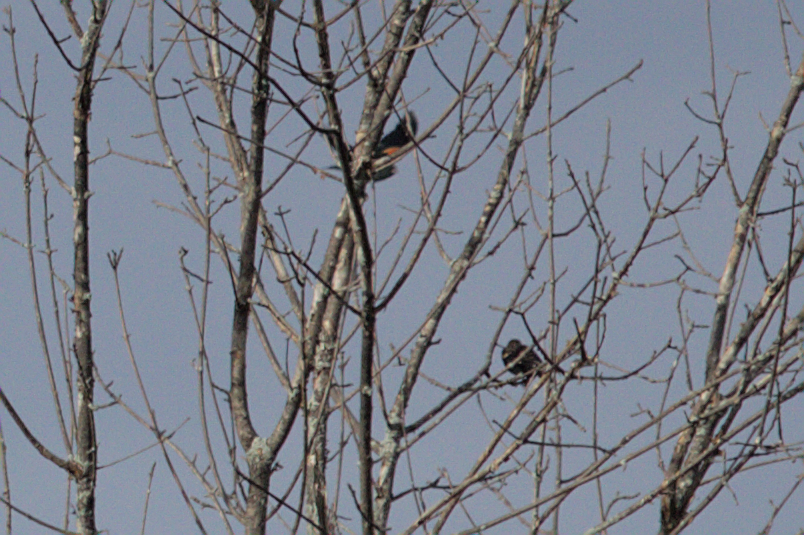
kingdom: Animalia
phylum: Chordata
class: Aves
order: Passeriformes
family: Icteridae
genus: Agelaius
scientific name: Agelaius phoeniceus
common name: Red-winged blackbird
